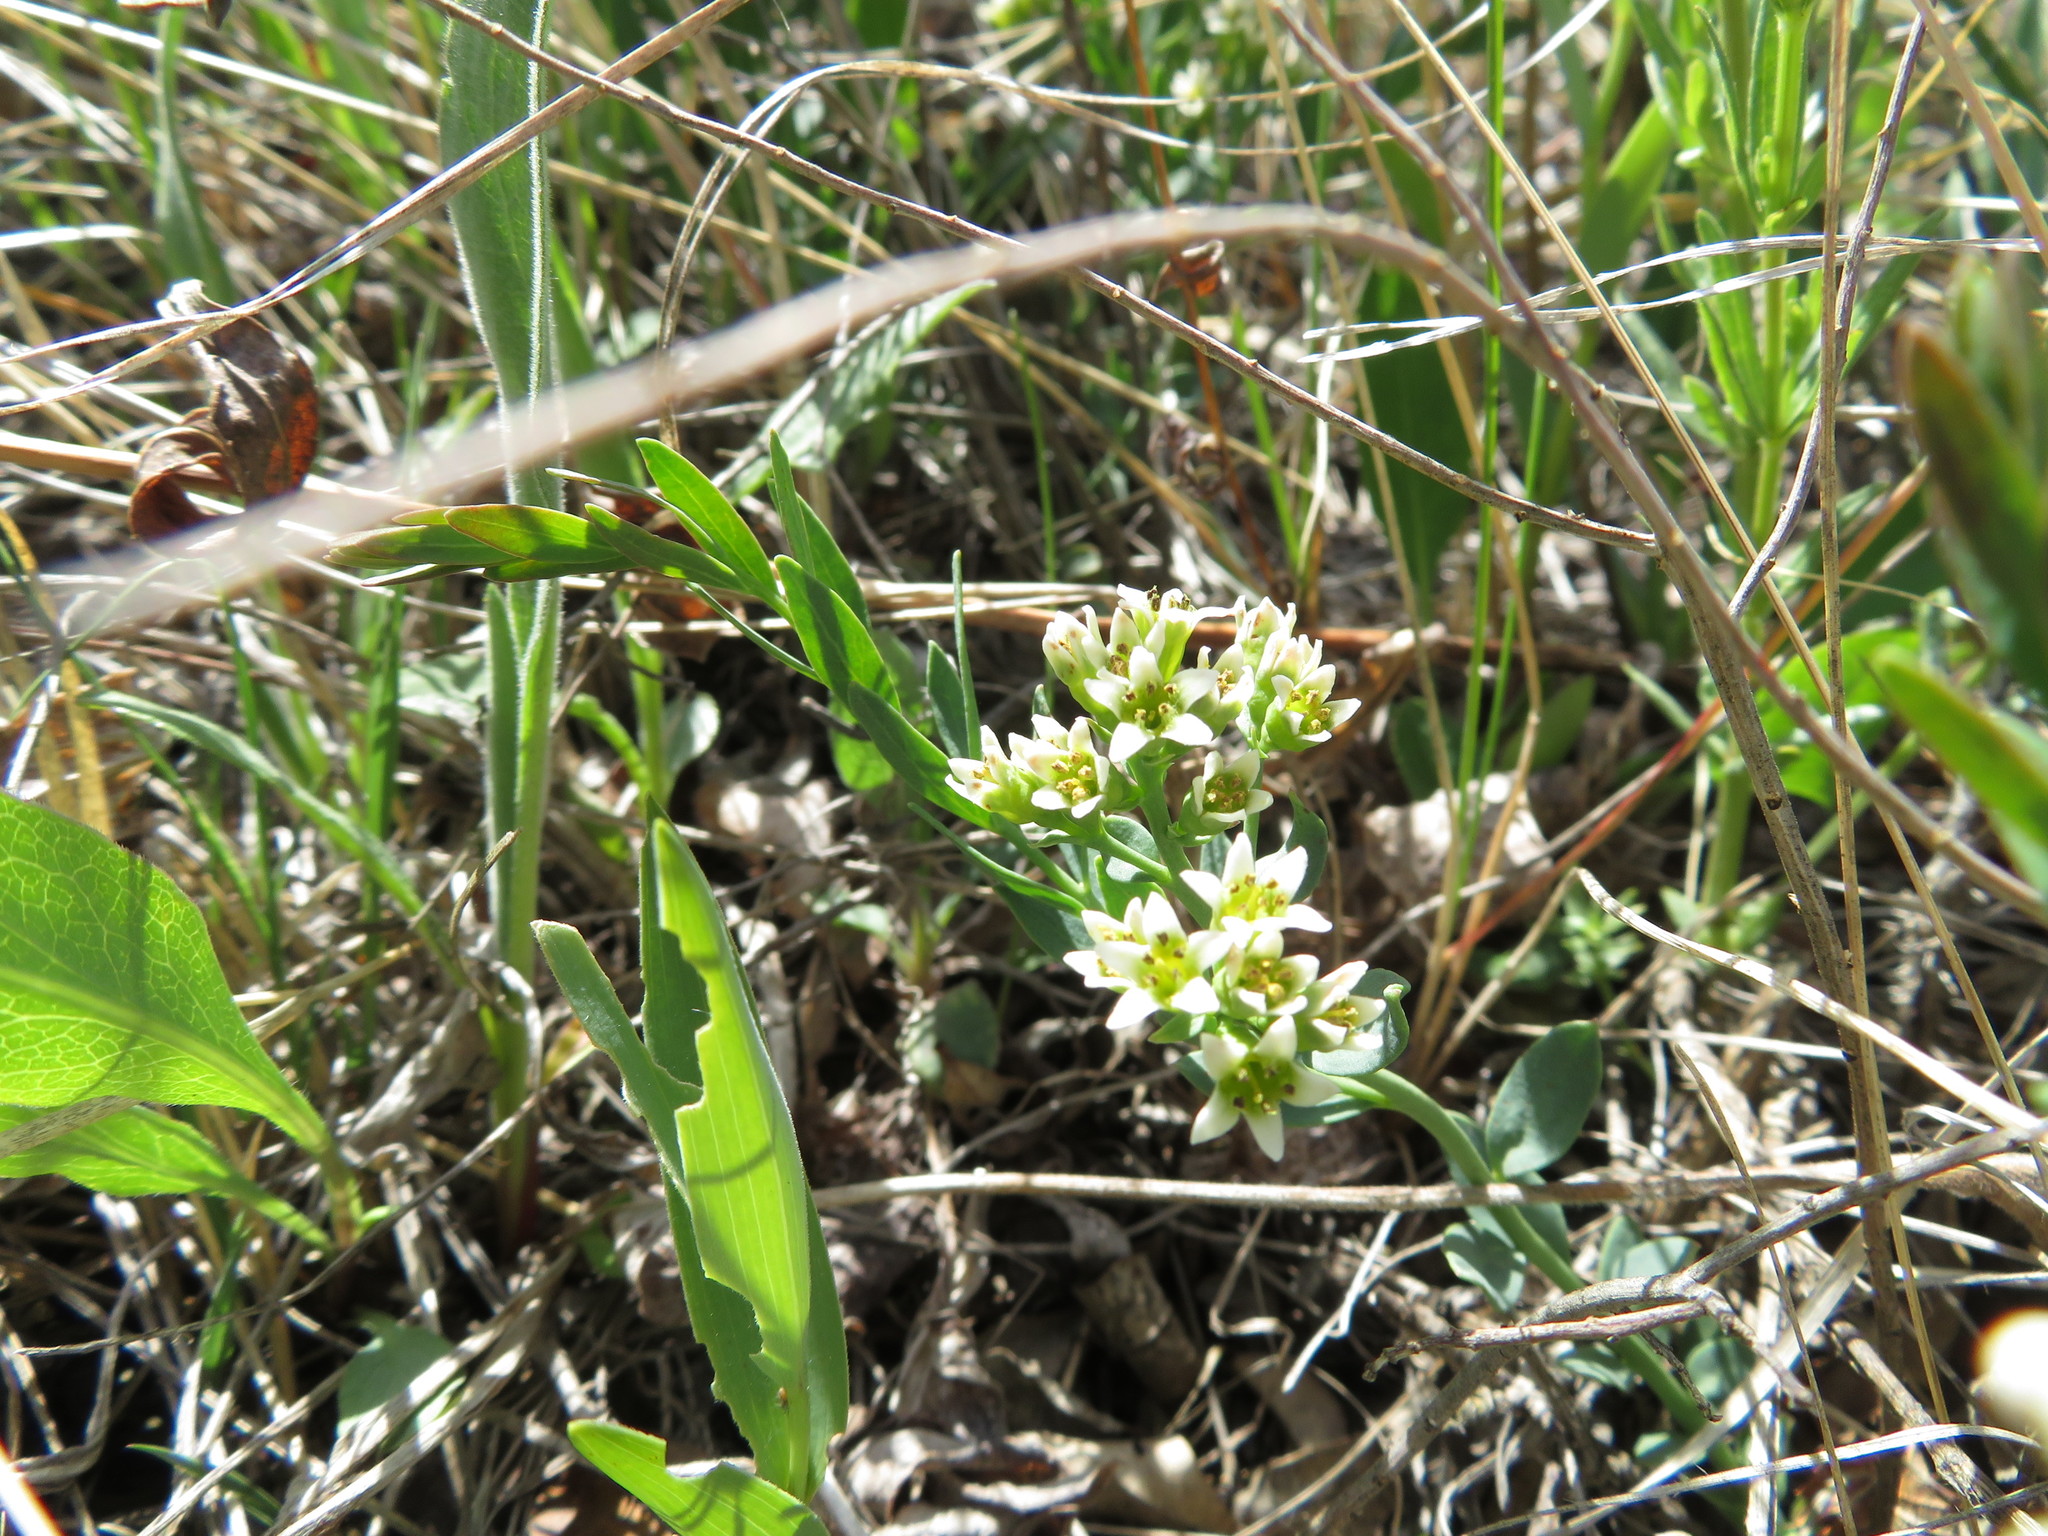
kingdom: Plantae
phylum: Tracheophyta
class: Magnoliopsida
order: Santalales
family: Comandraceae
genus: Comandra
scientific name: Comandra umbellata
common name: Bastard toadflax
